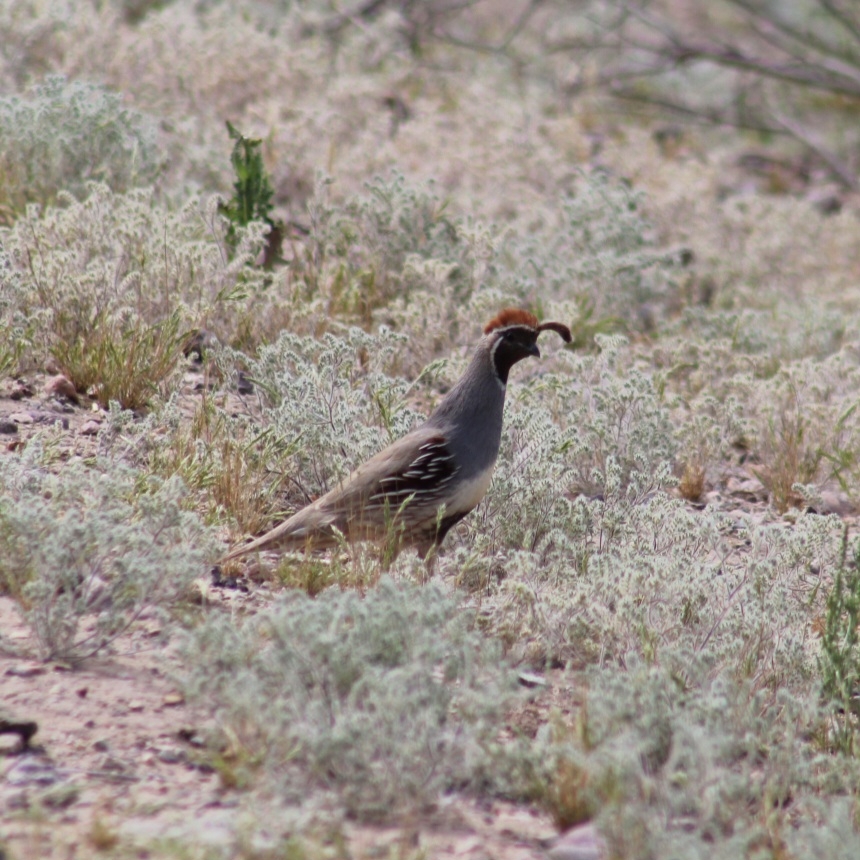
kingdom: Animalia
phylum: Chordata
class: Aves
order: Galliformes
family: Odontophoridae
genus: Callipepla
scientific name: Callipepla gambelii
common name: Gambel's quail
